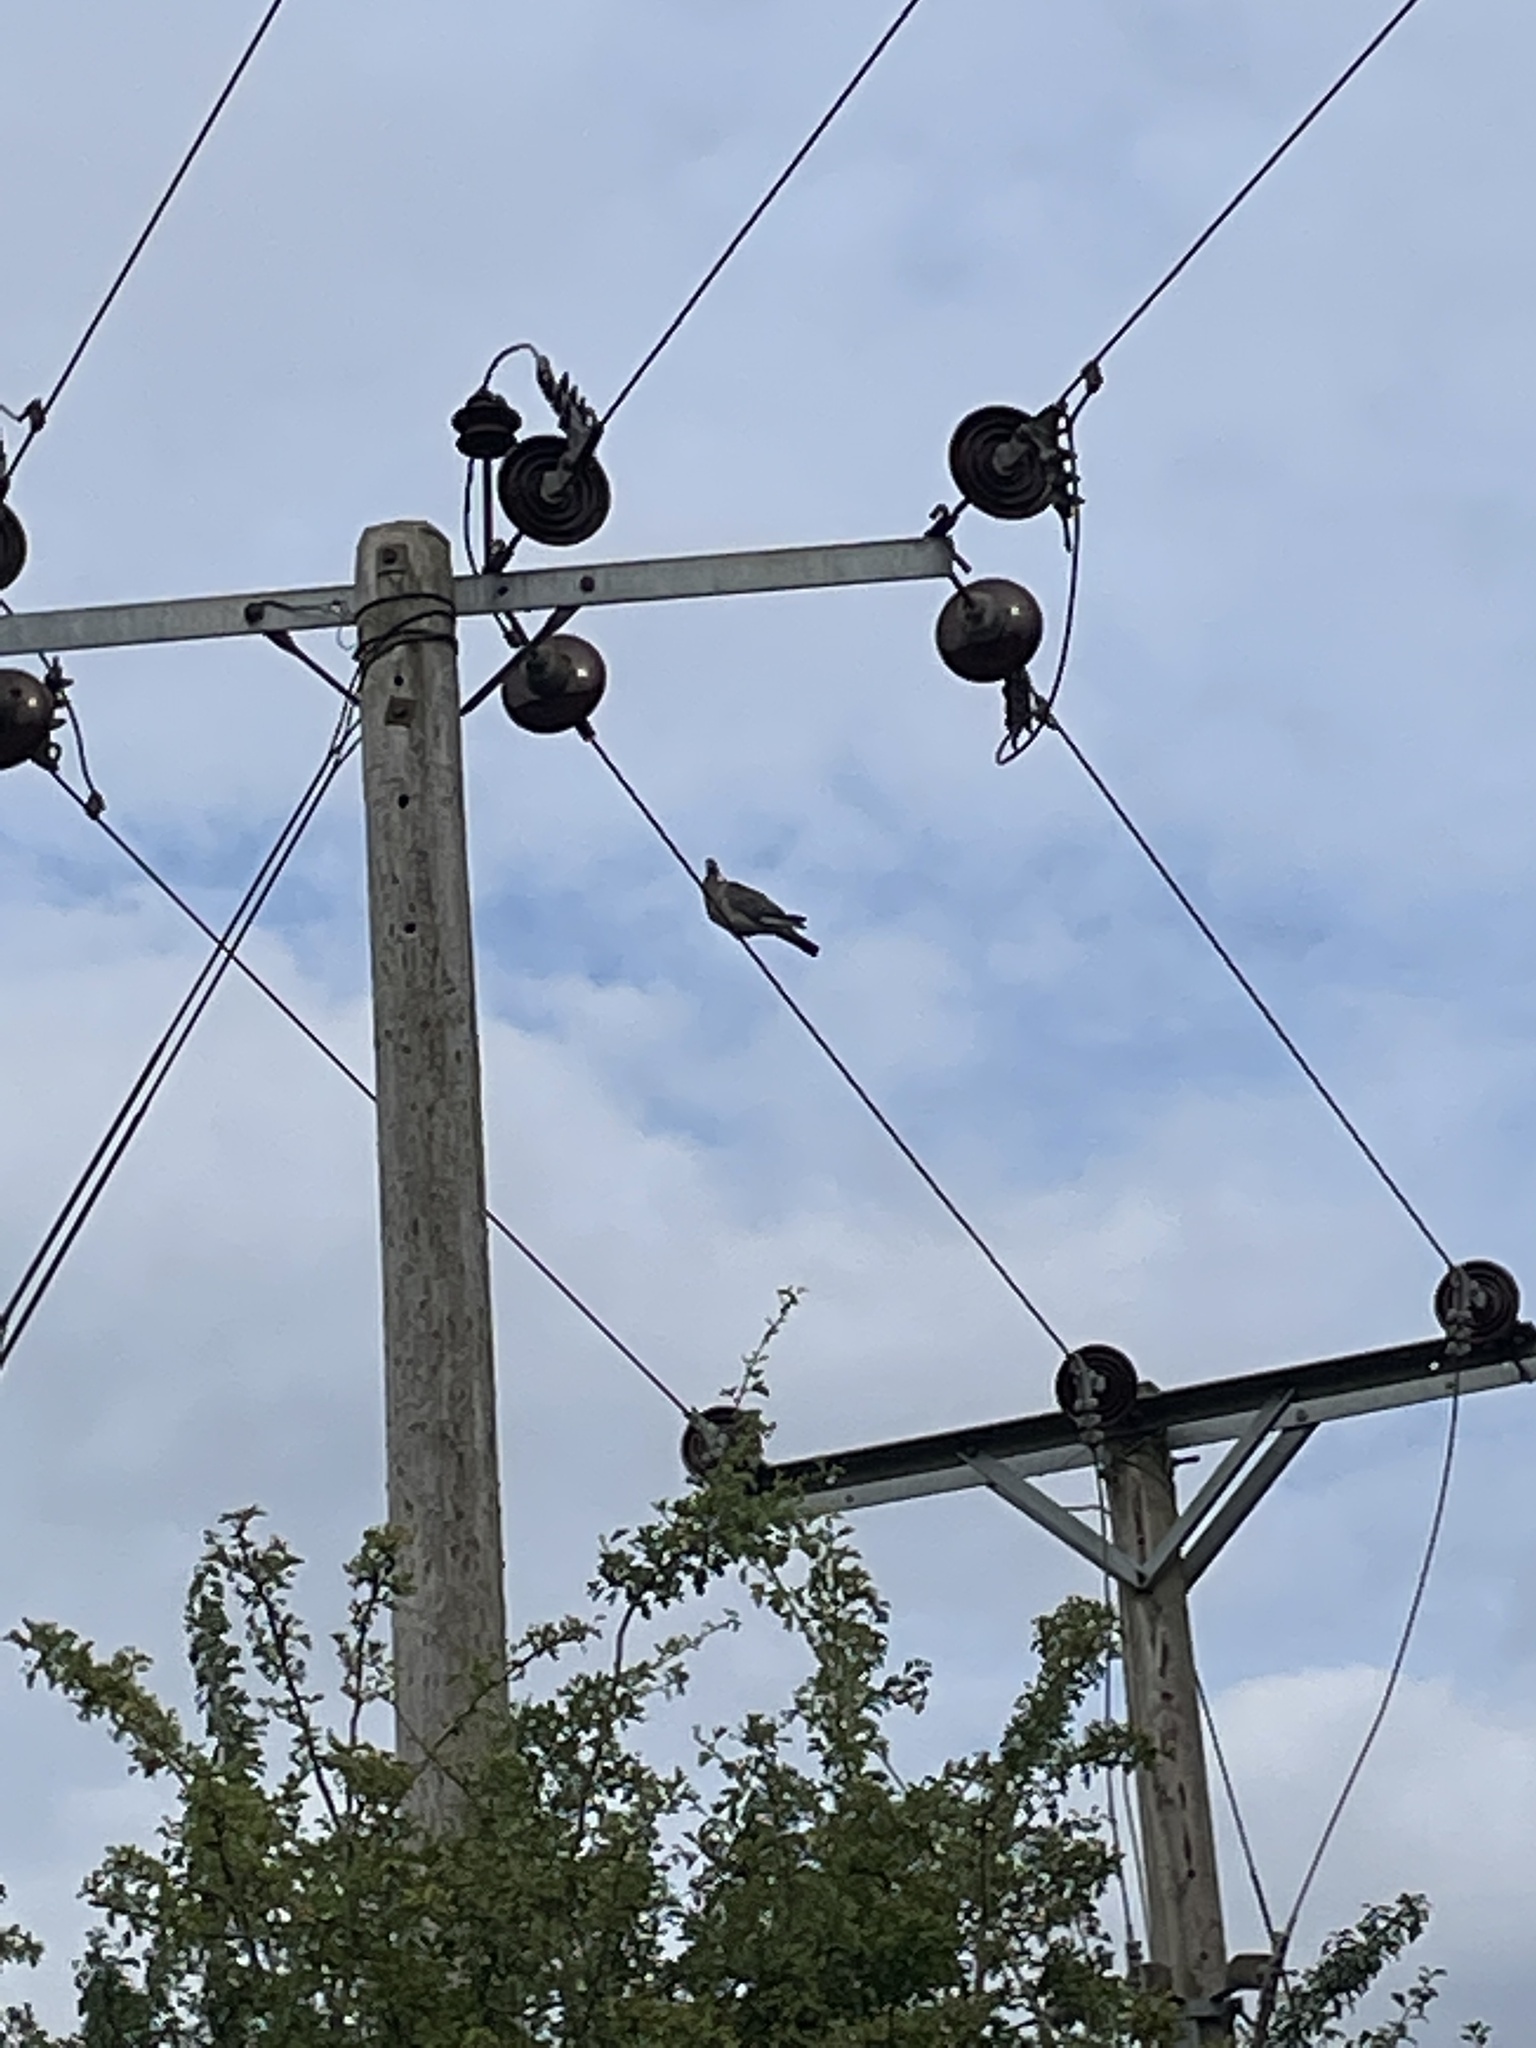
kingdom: Animalia
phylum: Chordata
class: Aves
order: Columbiformes
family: Columbidae
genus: Columba
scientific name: Columba palumbus
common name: Common wood pigeon
